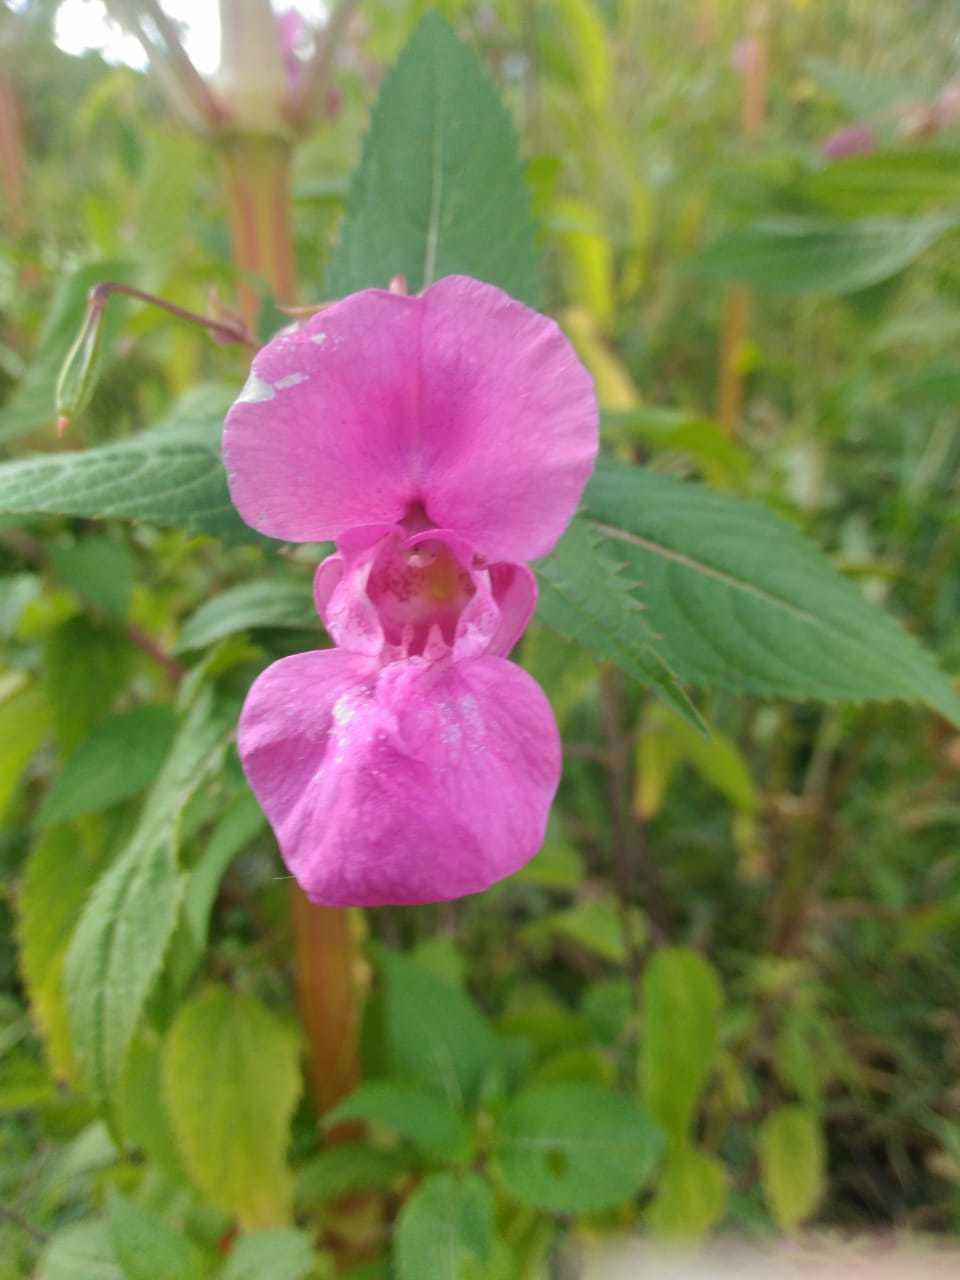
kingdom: Plantae
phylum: Tracheophyta
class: Magnoliopsida
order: Ericales
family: Balsaminaceae
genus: Impatiens
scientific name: Impatiens glandulifera
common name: Himalayan balsam
